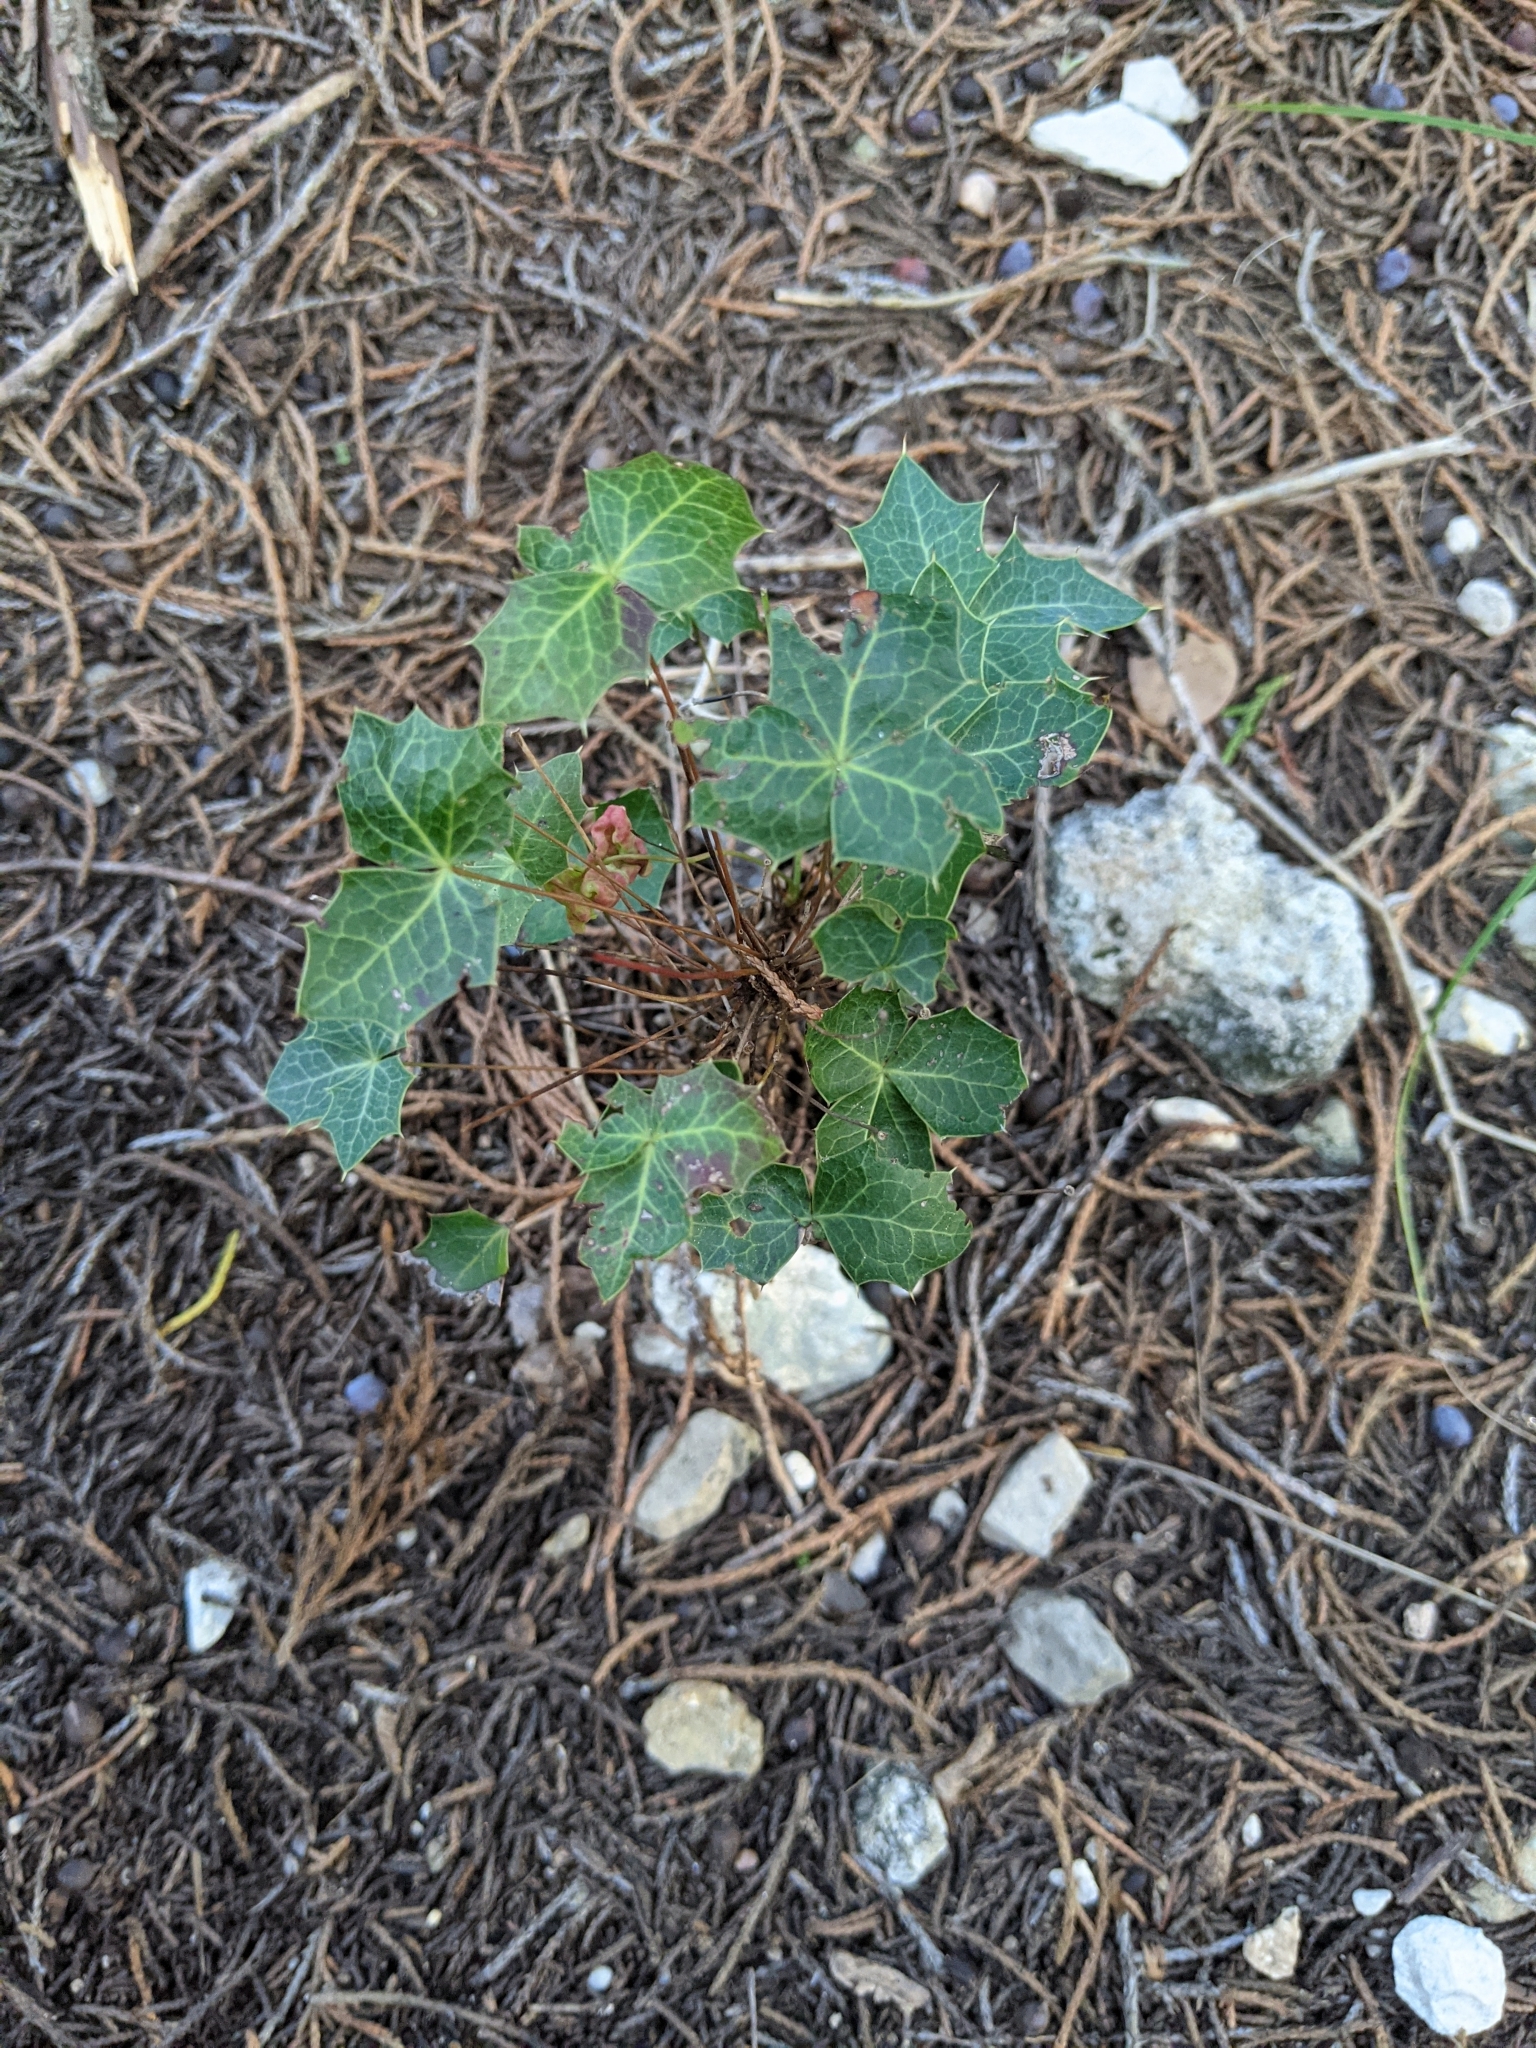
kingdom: Plantae
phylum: Tracheophyta
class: Magnoliopsida
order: Ranunculales
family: Berberidaceae
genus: Alloberberis
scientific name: Alloberberis trifoliolata
